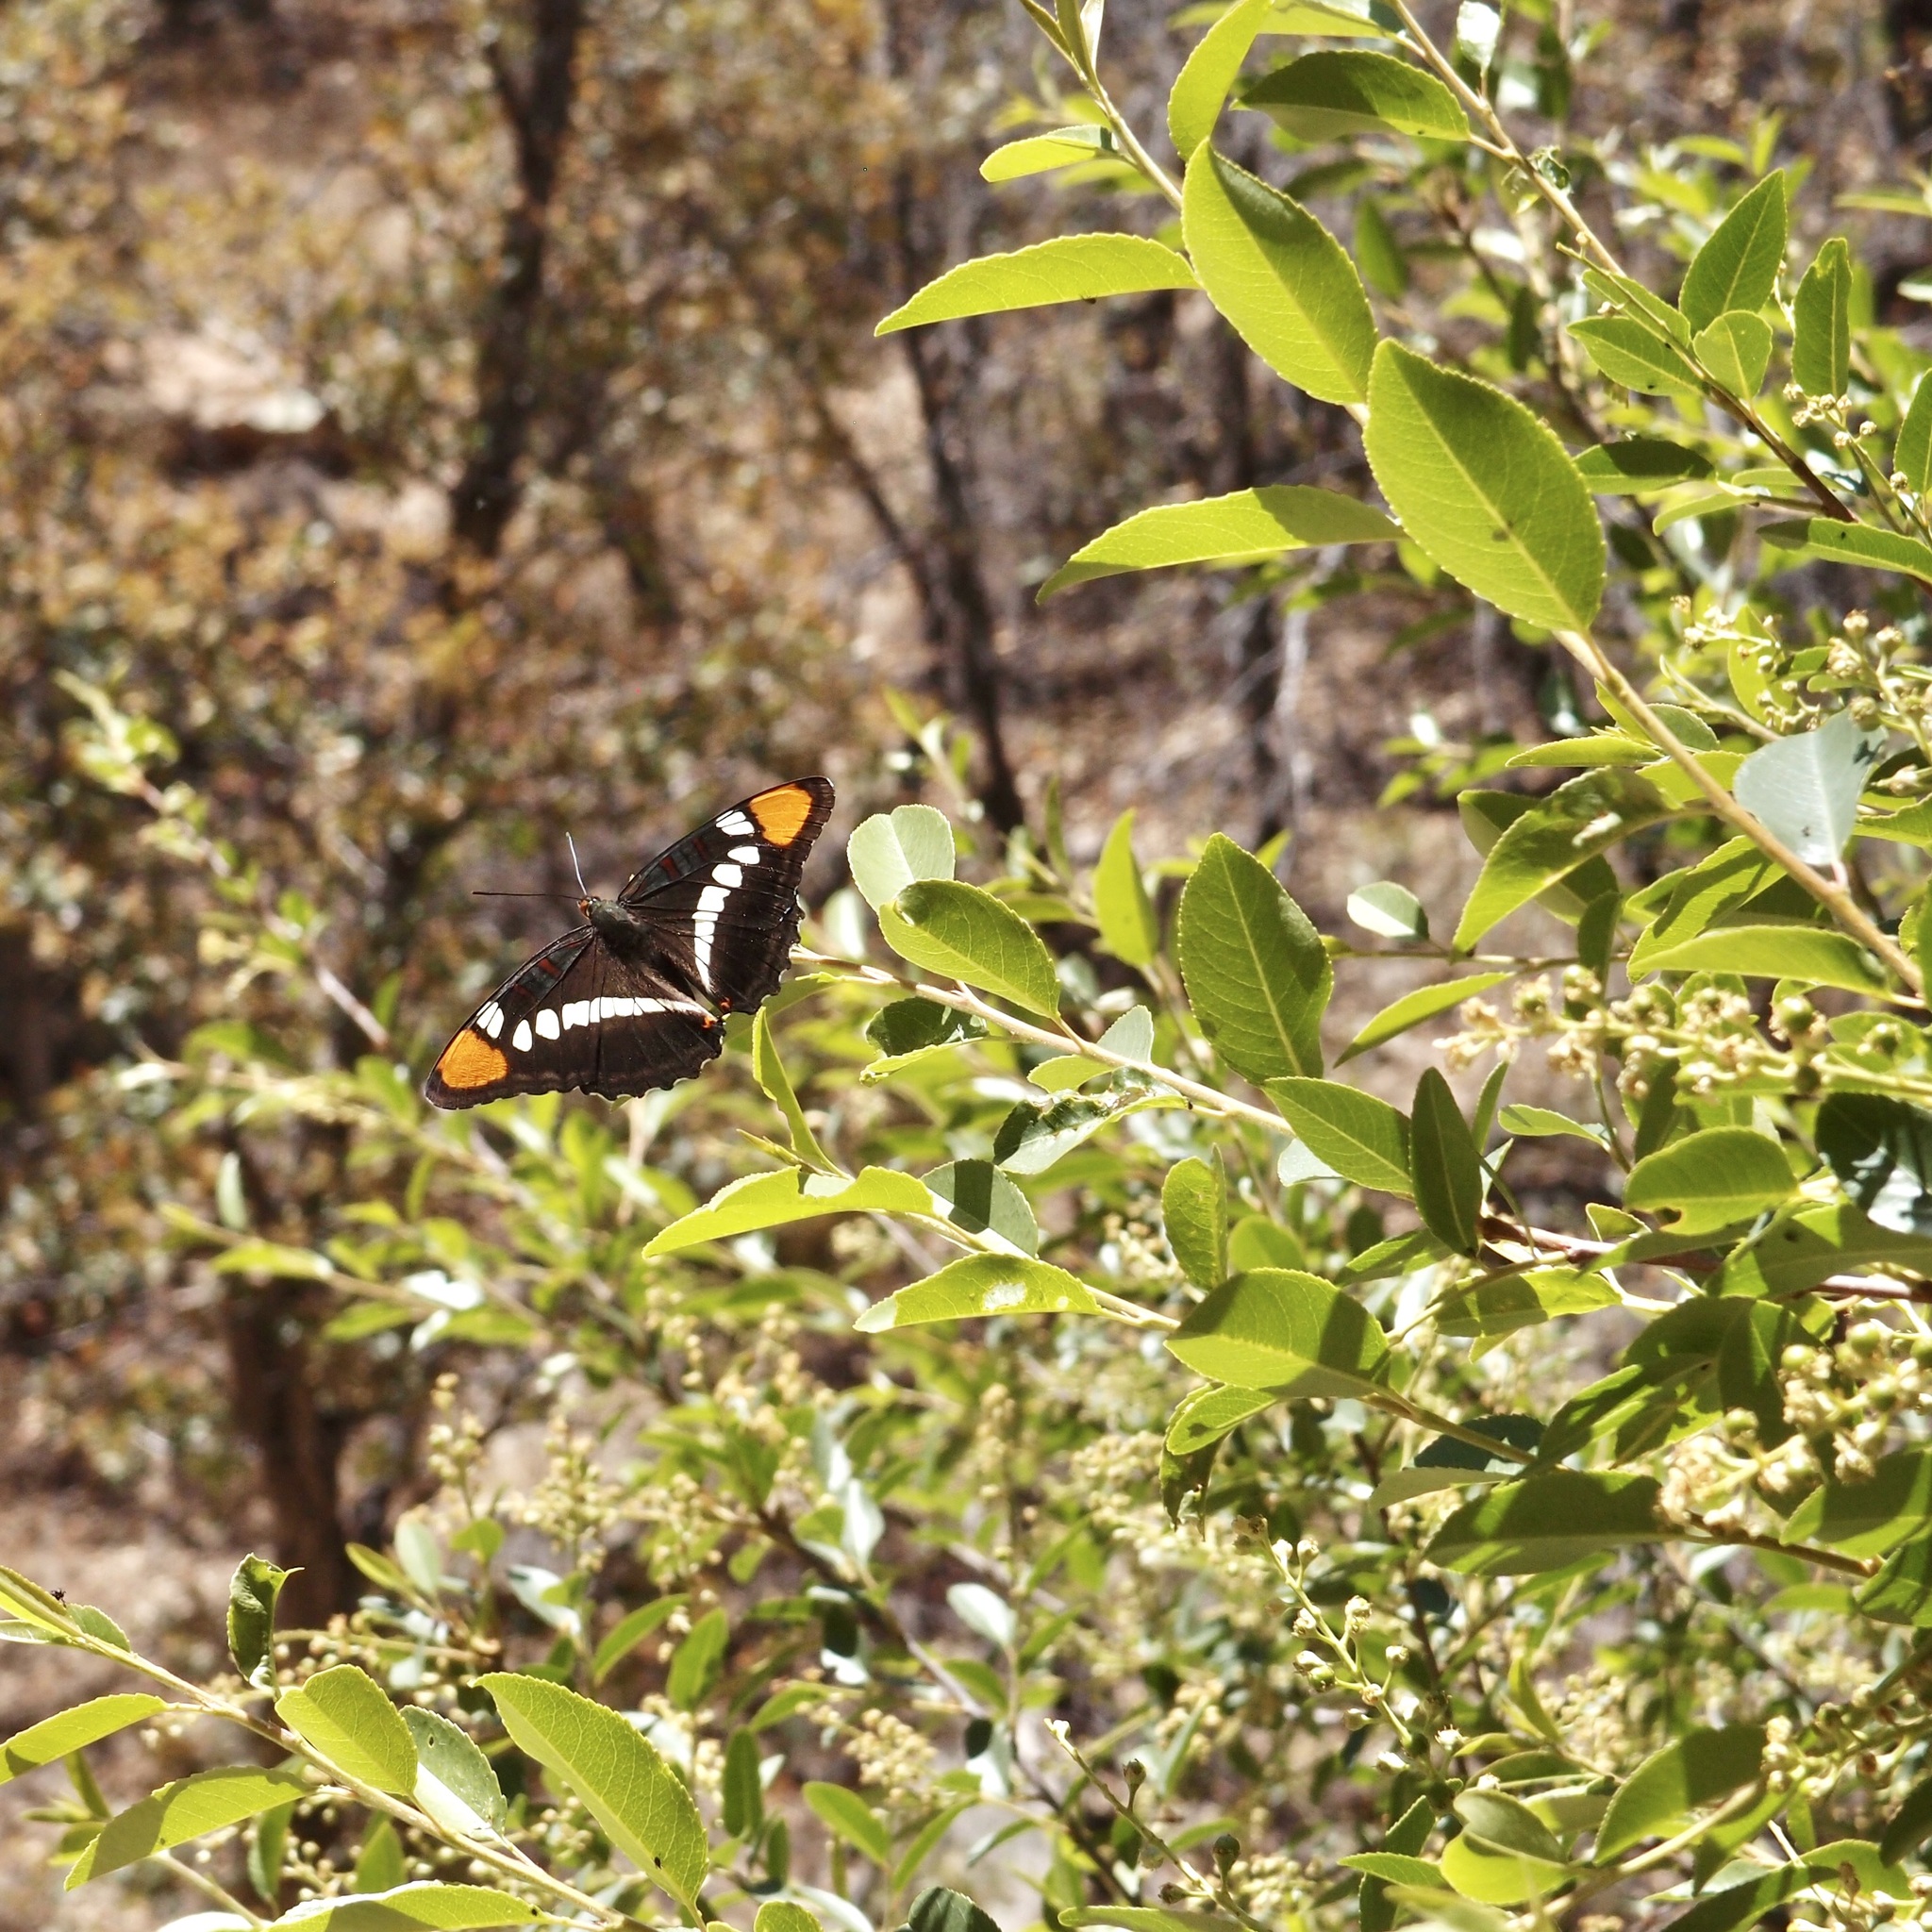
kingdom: Plantae
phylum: Tracheophyta
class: Magnoliopsida
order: Rosales
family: Rosaceae
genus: Prunus
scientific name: Prunus serotina
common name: Black cherry
